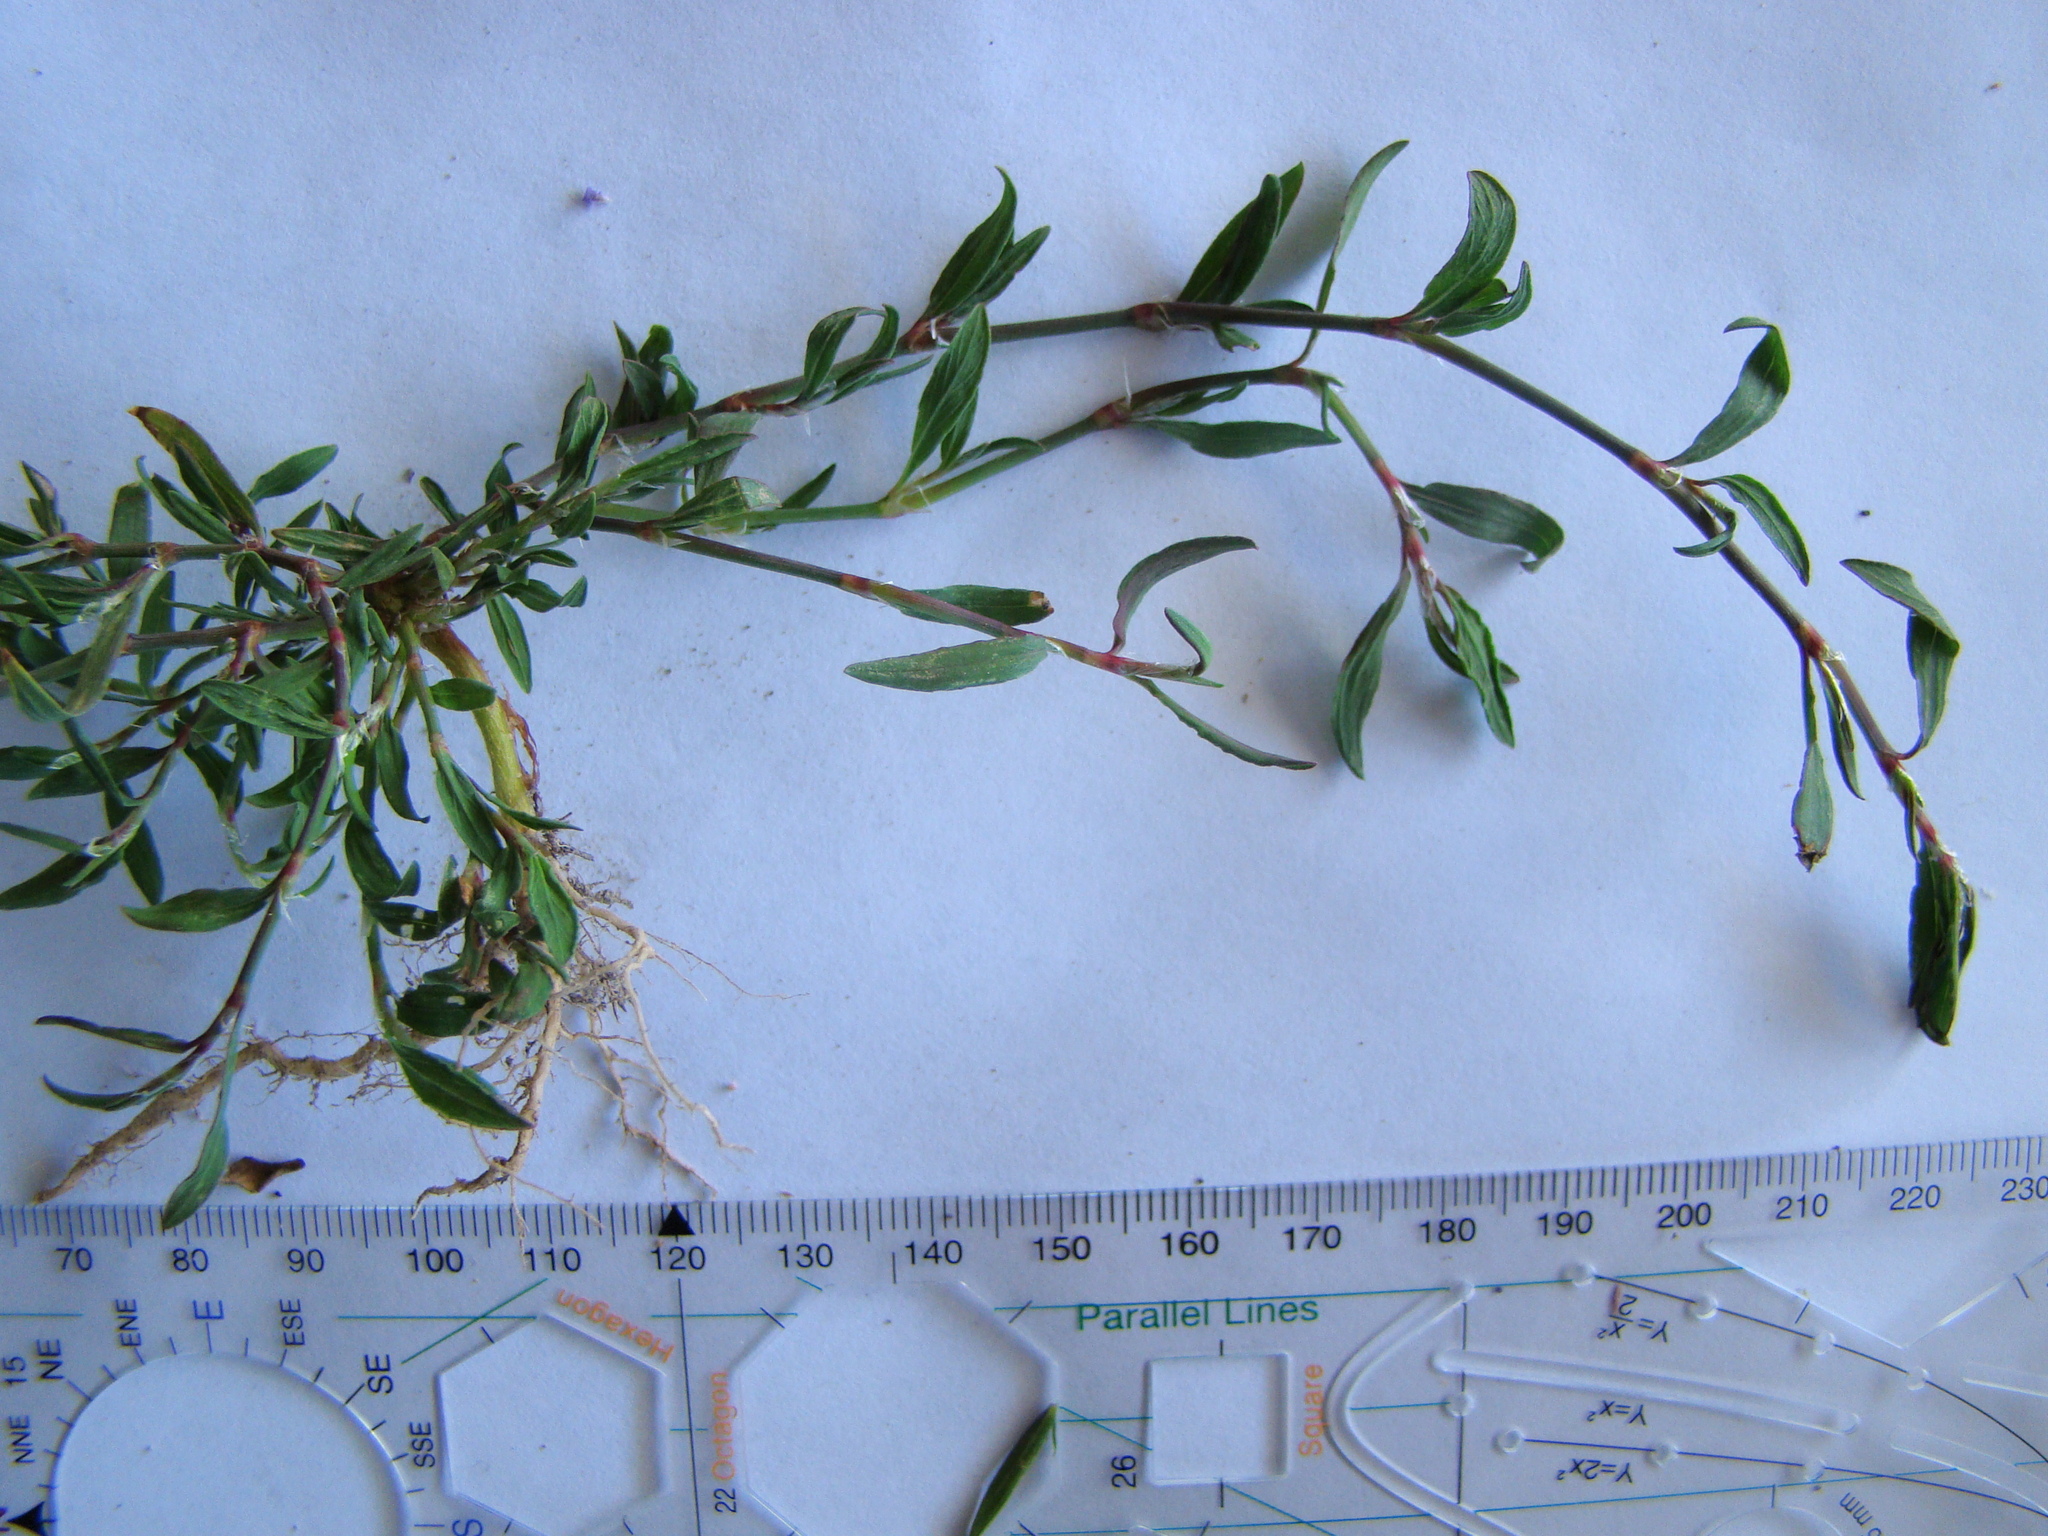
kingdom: Plantae
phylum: Tracheophyta
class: Magnoliopsida
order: Caryophyllales
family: Polygonaceae
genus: Polygonum
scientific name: Polygonum aviculare
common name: Prostrate knotweed
